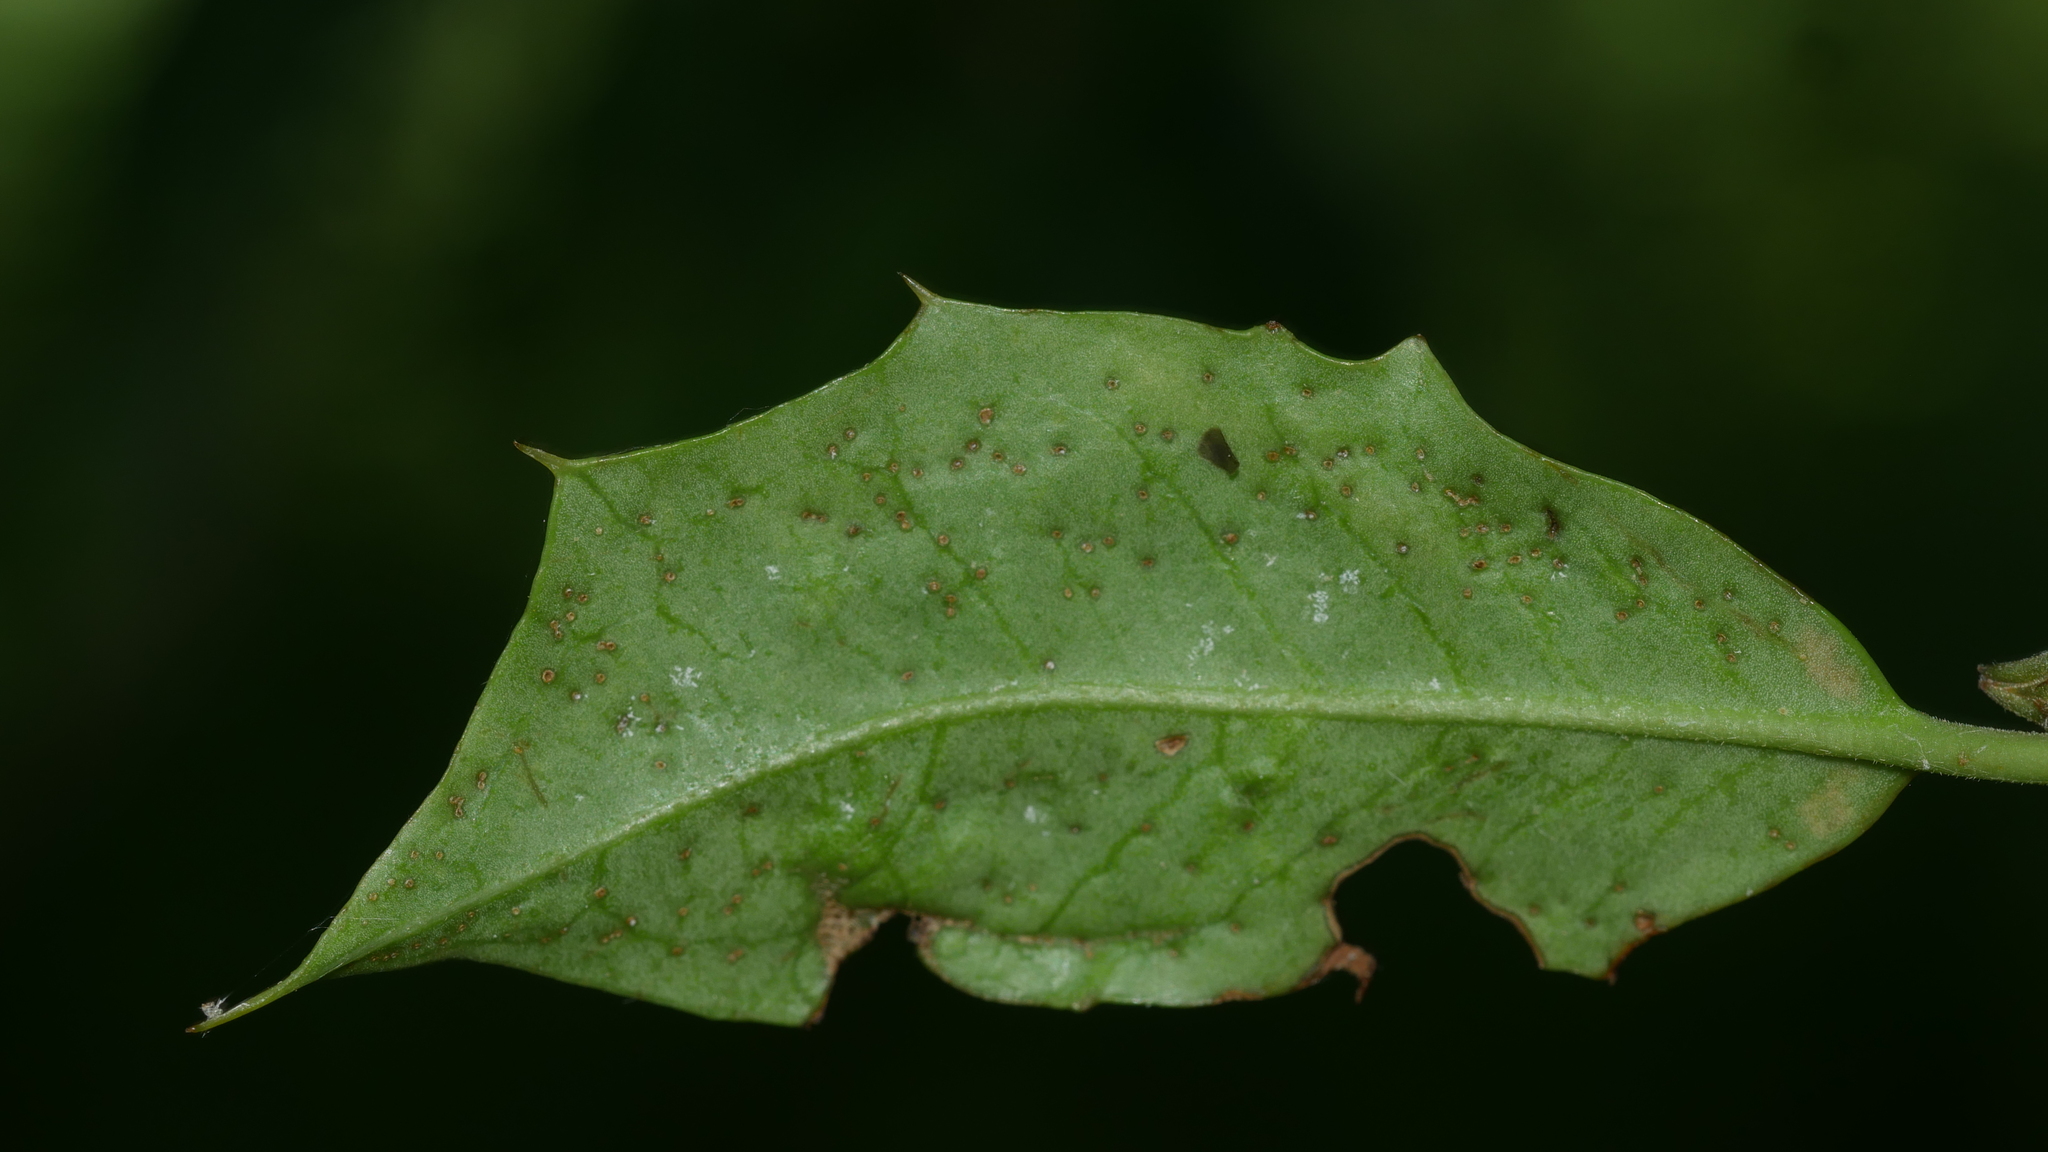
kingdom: Animalia
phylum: Arthropoda
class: Insecta
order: Diptera
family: Agromyzidae
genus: Phytomyza
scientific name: Phytomyza opacae
